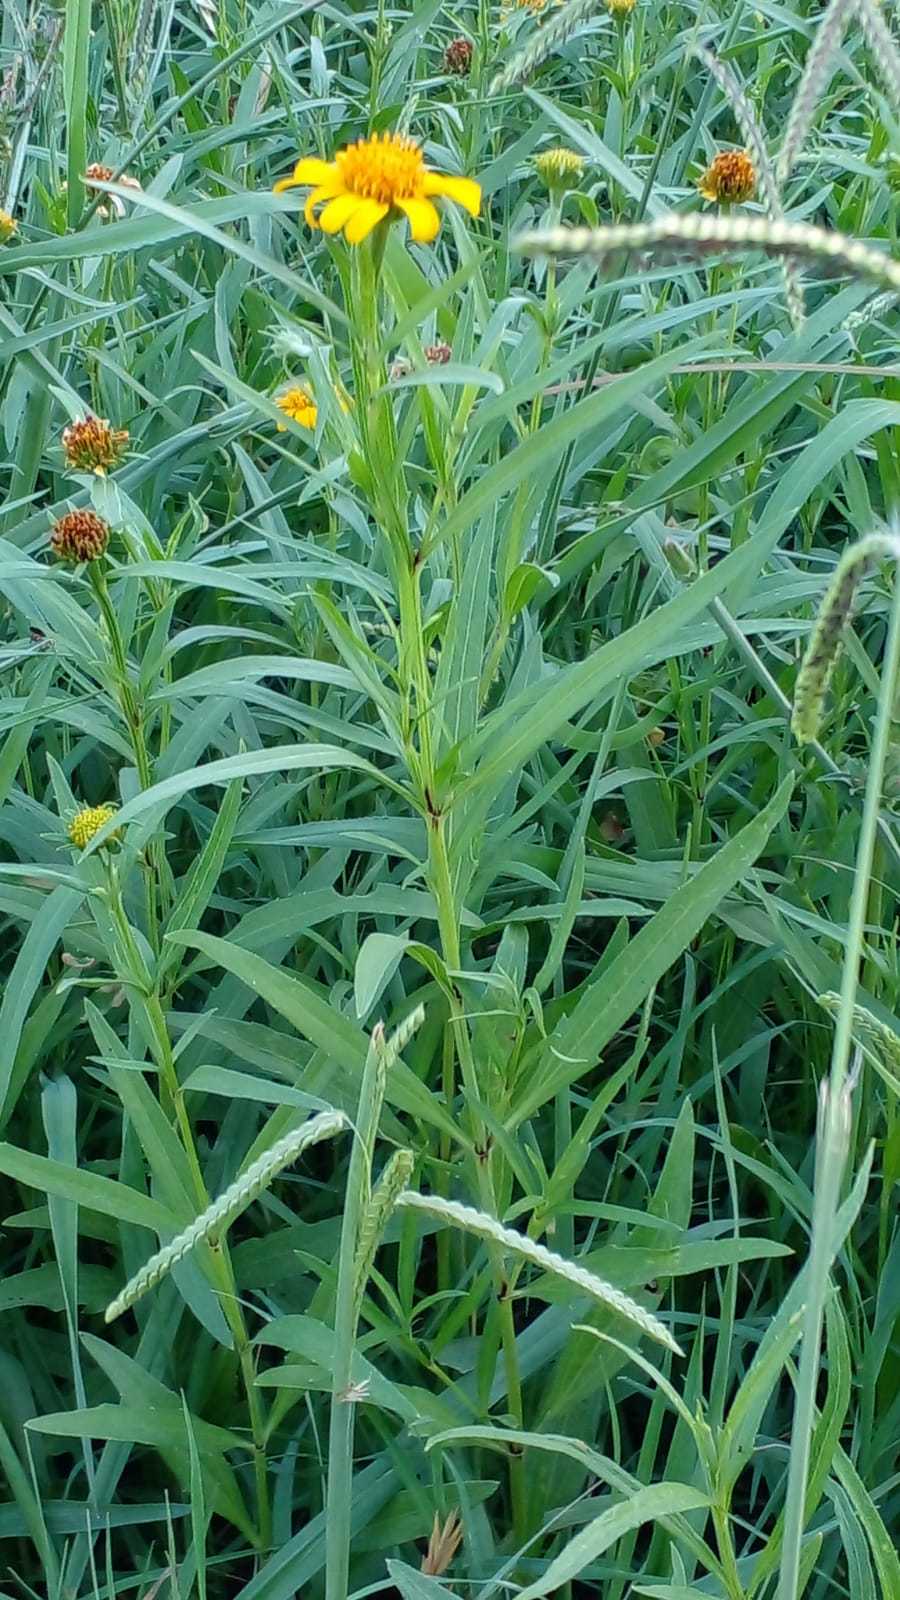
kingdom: Plantae
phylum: Tracheophyta
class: Magnoliopsida
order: Asterales
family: Asteraceae
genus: Pascalia
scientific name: Pascalia glauca
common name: Beach creeping oxeye
